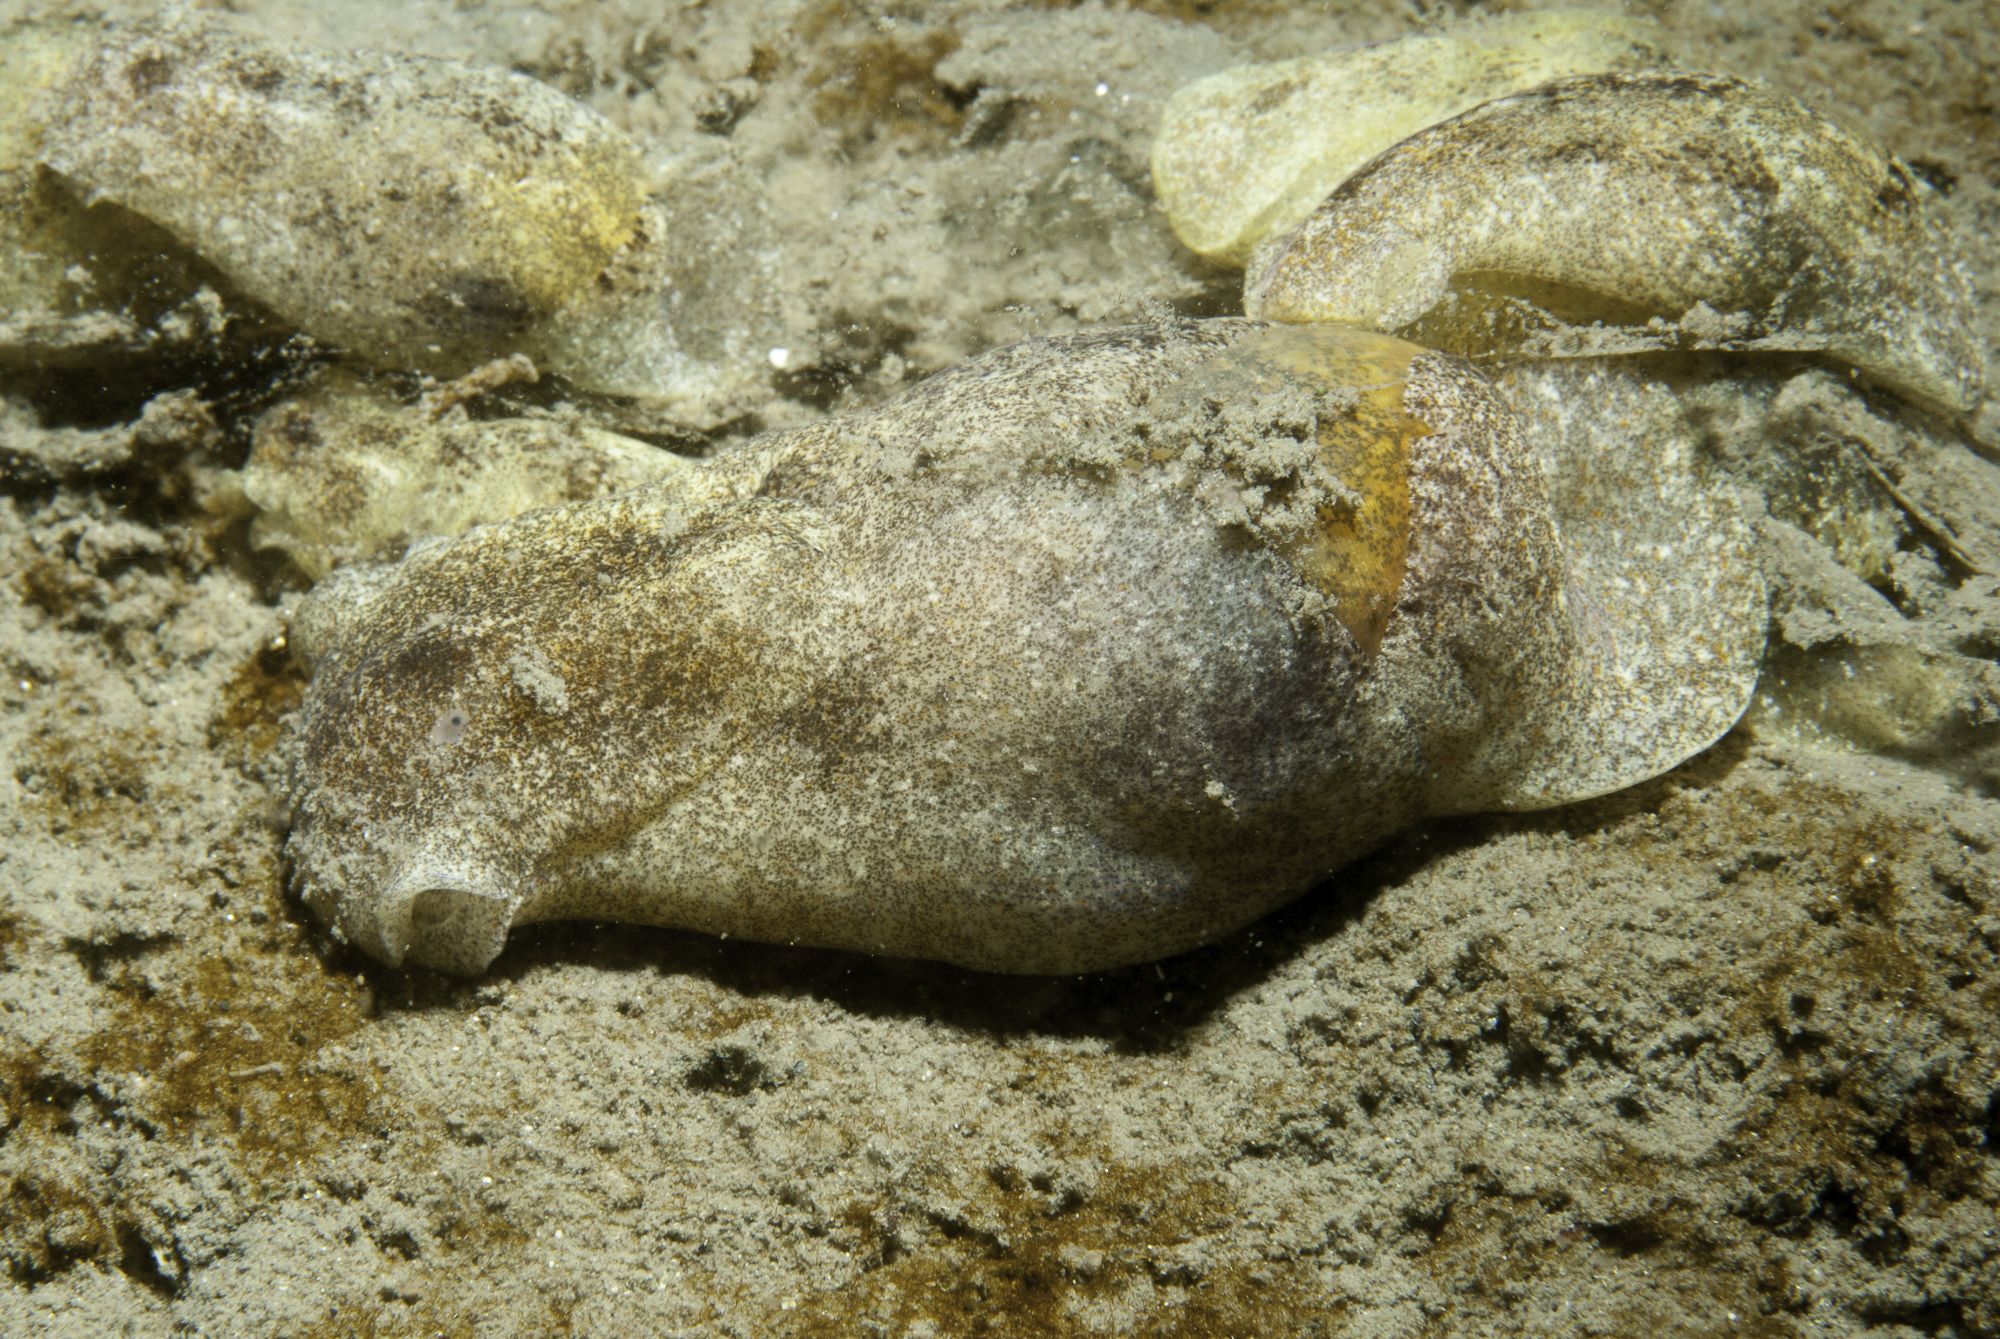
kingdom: Animalia
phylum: Mollusca
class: Gastropoda
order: Cephalaspidea
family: Haminoeidae
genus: Haminoea
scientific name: Haminoea navicula
